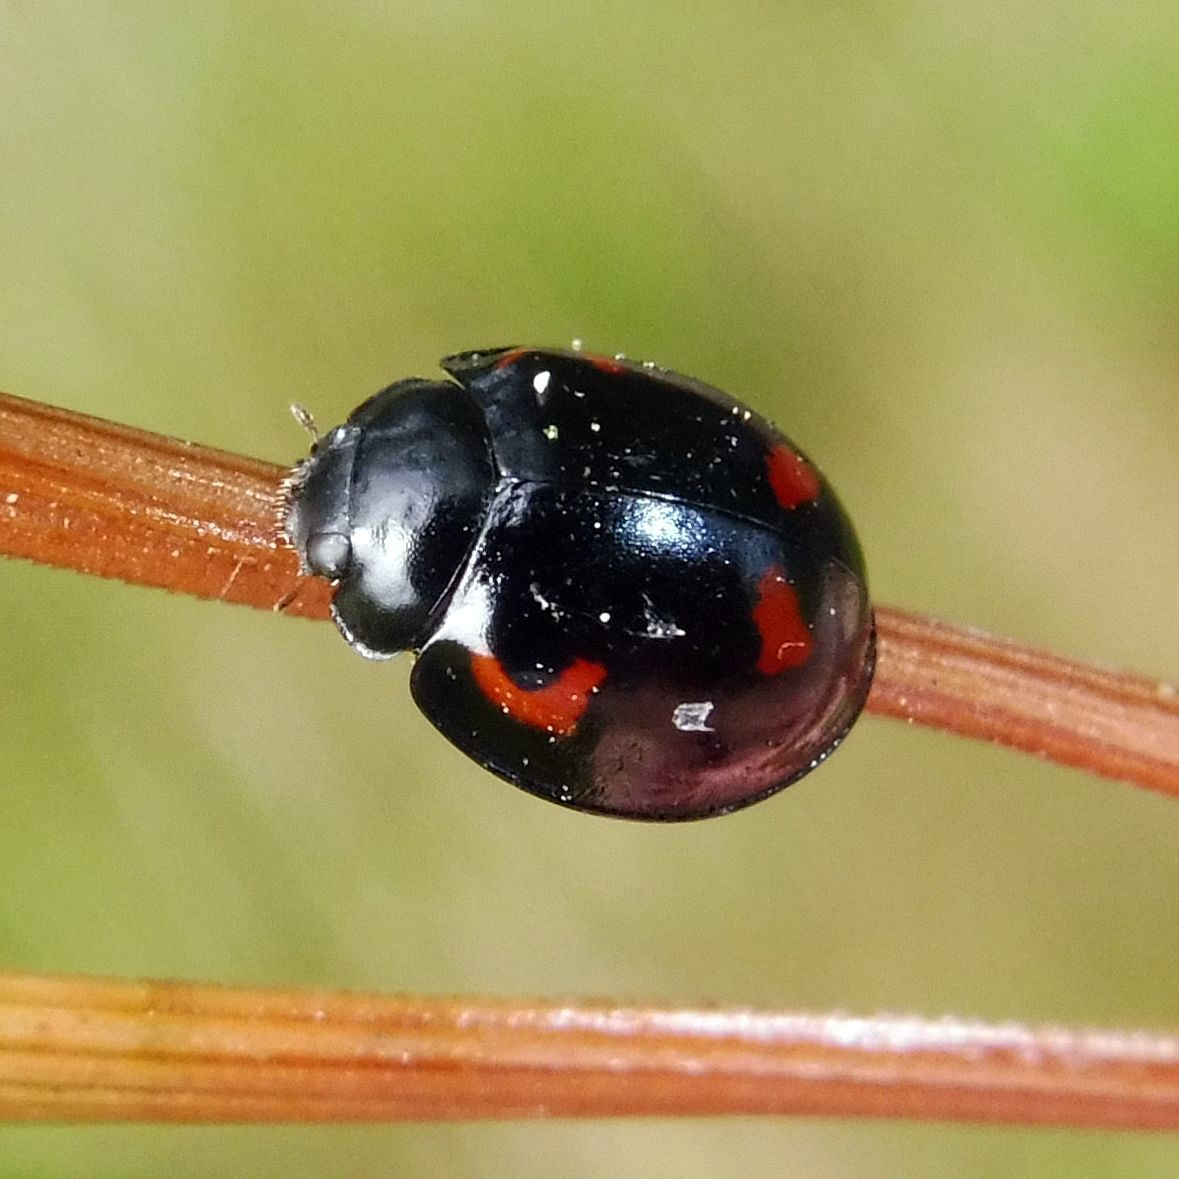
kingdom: Animalia
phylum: Arthropoda
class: Insecta
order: Coleoptera
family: Coccinellidae
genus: Brumus
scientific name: Brumus quadripustulatus
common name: Ladybird beetle
